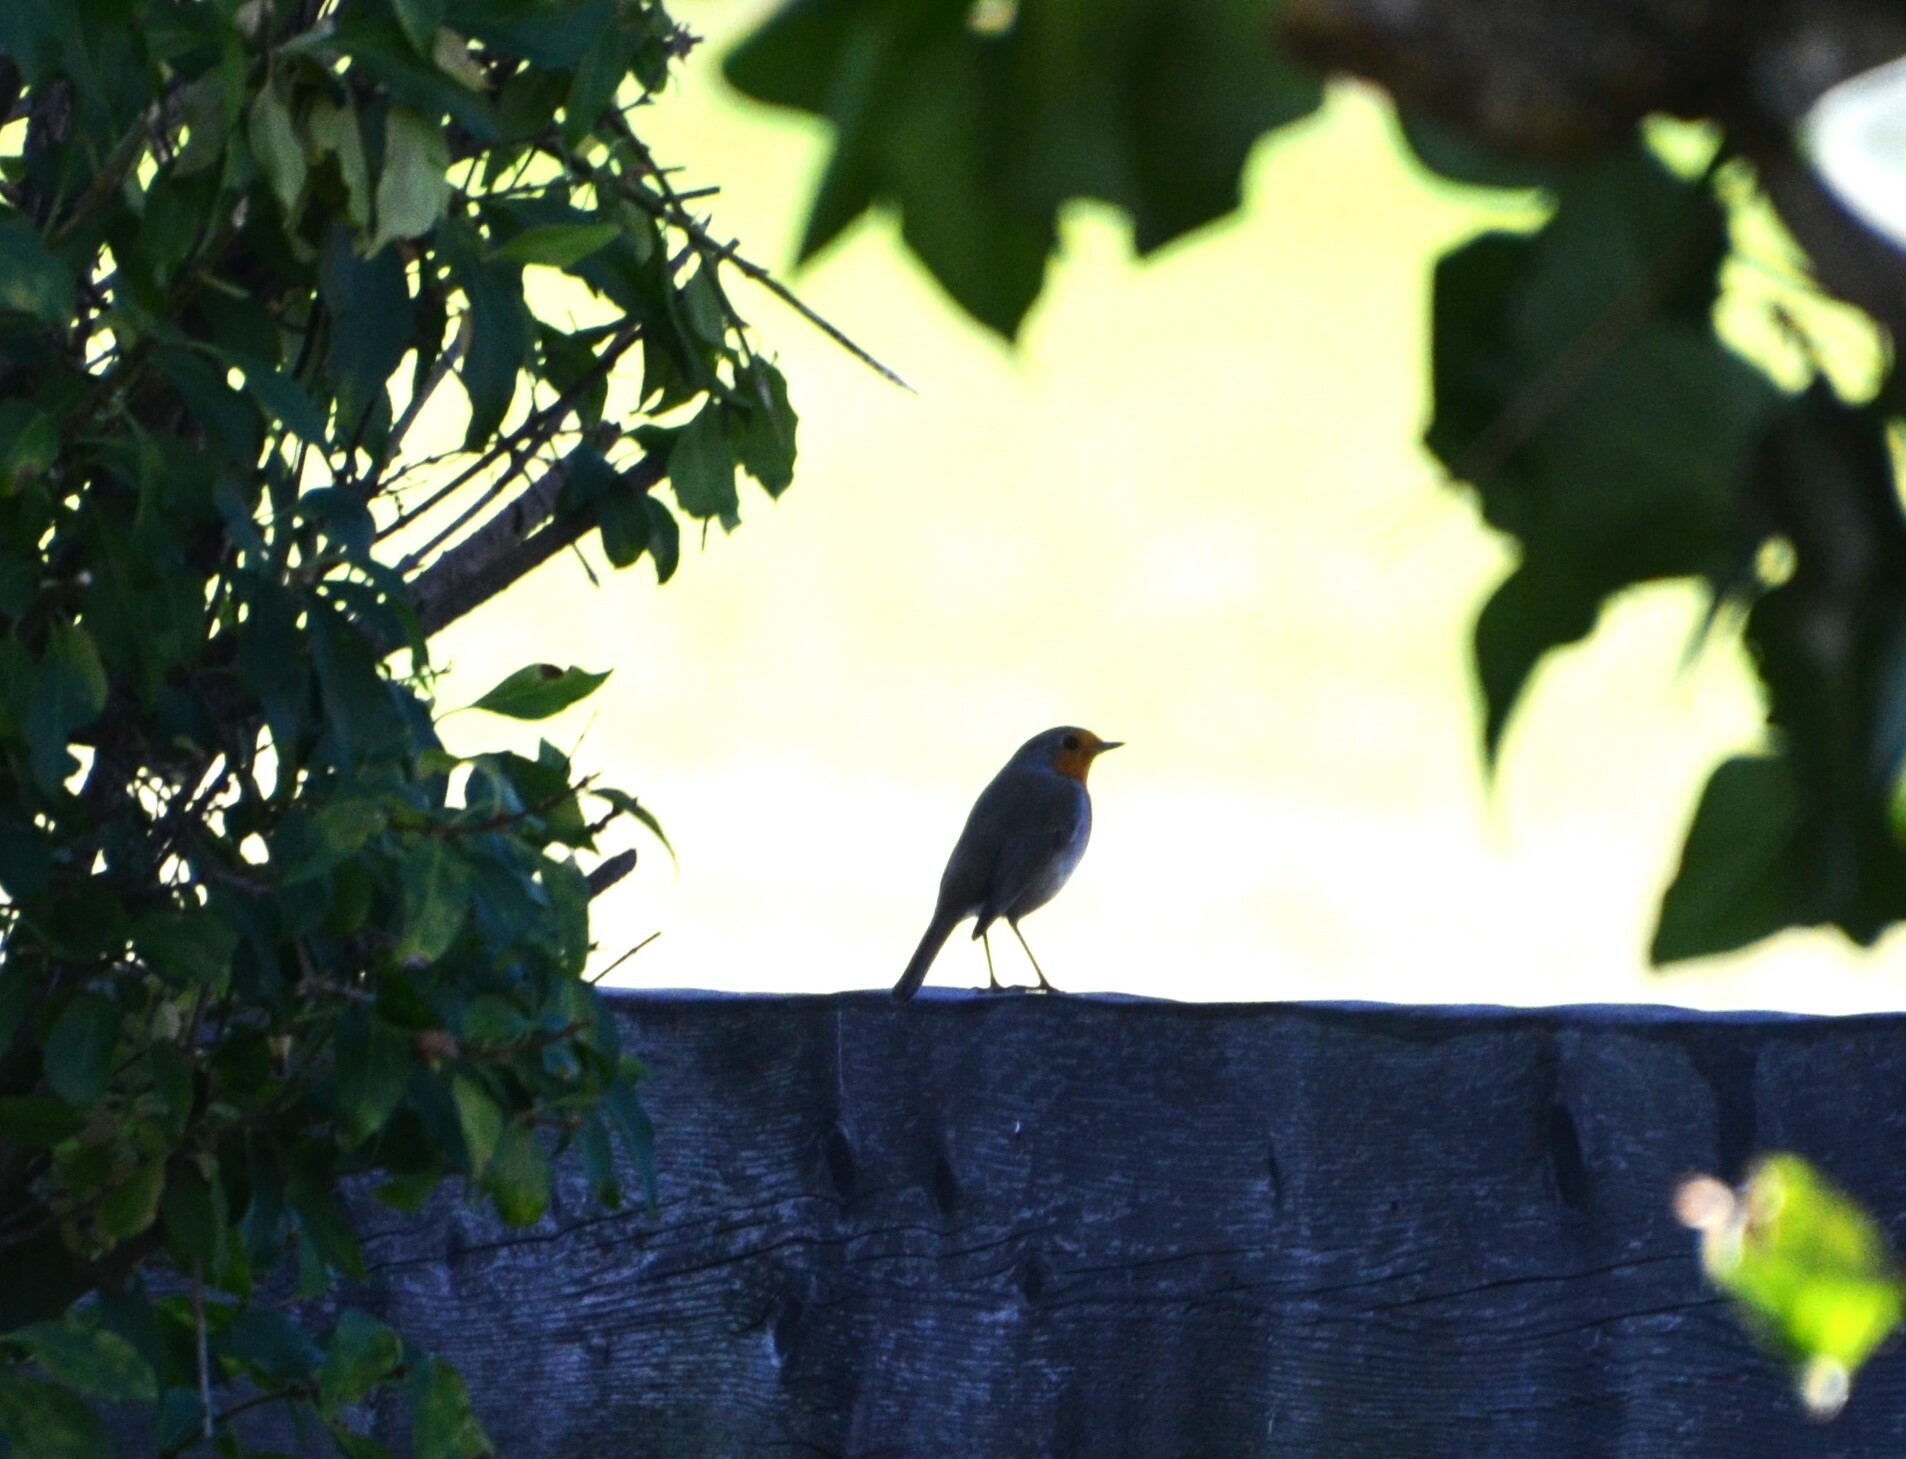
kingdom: Animalia
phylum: Chordata
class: Aves
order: Passeriformes
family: Muscicapidae
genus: Erithacus
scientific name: Erithacus rubecula
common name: European robin
